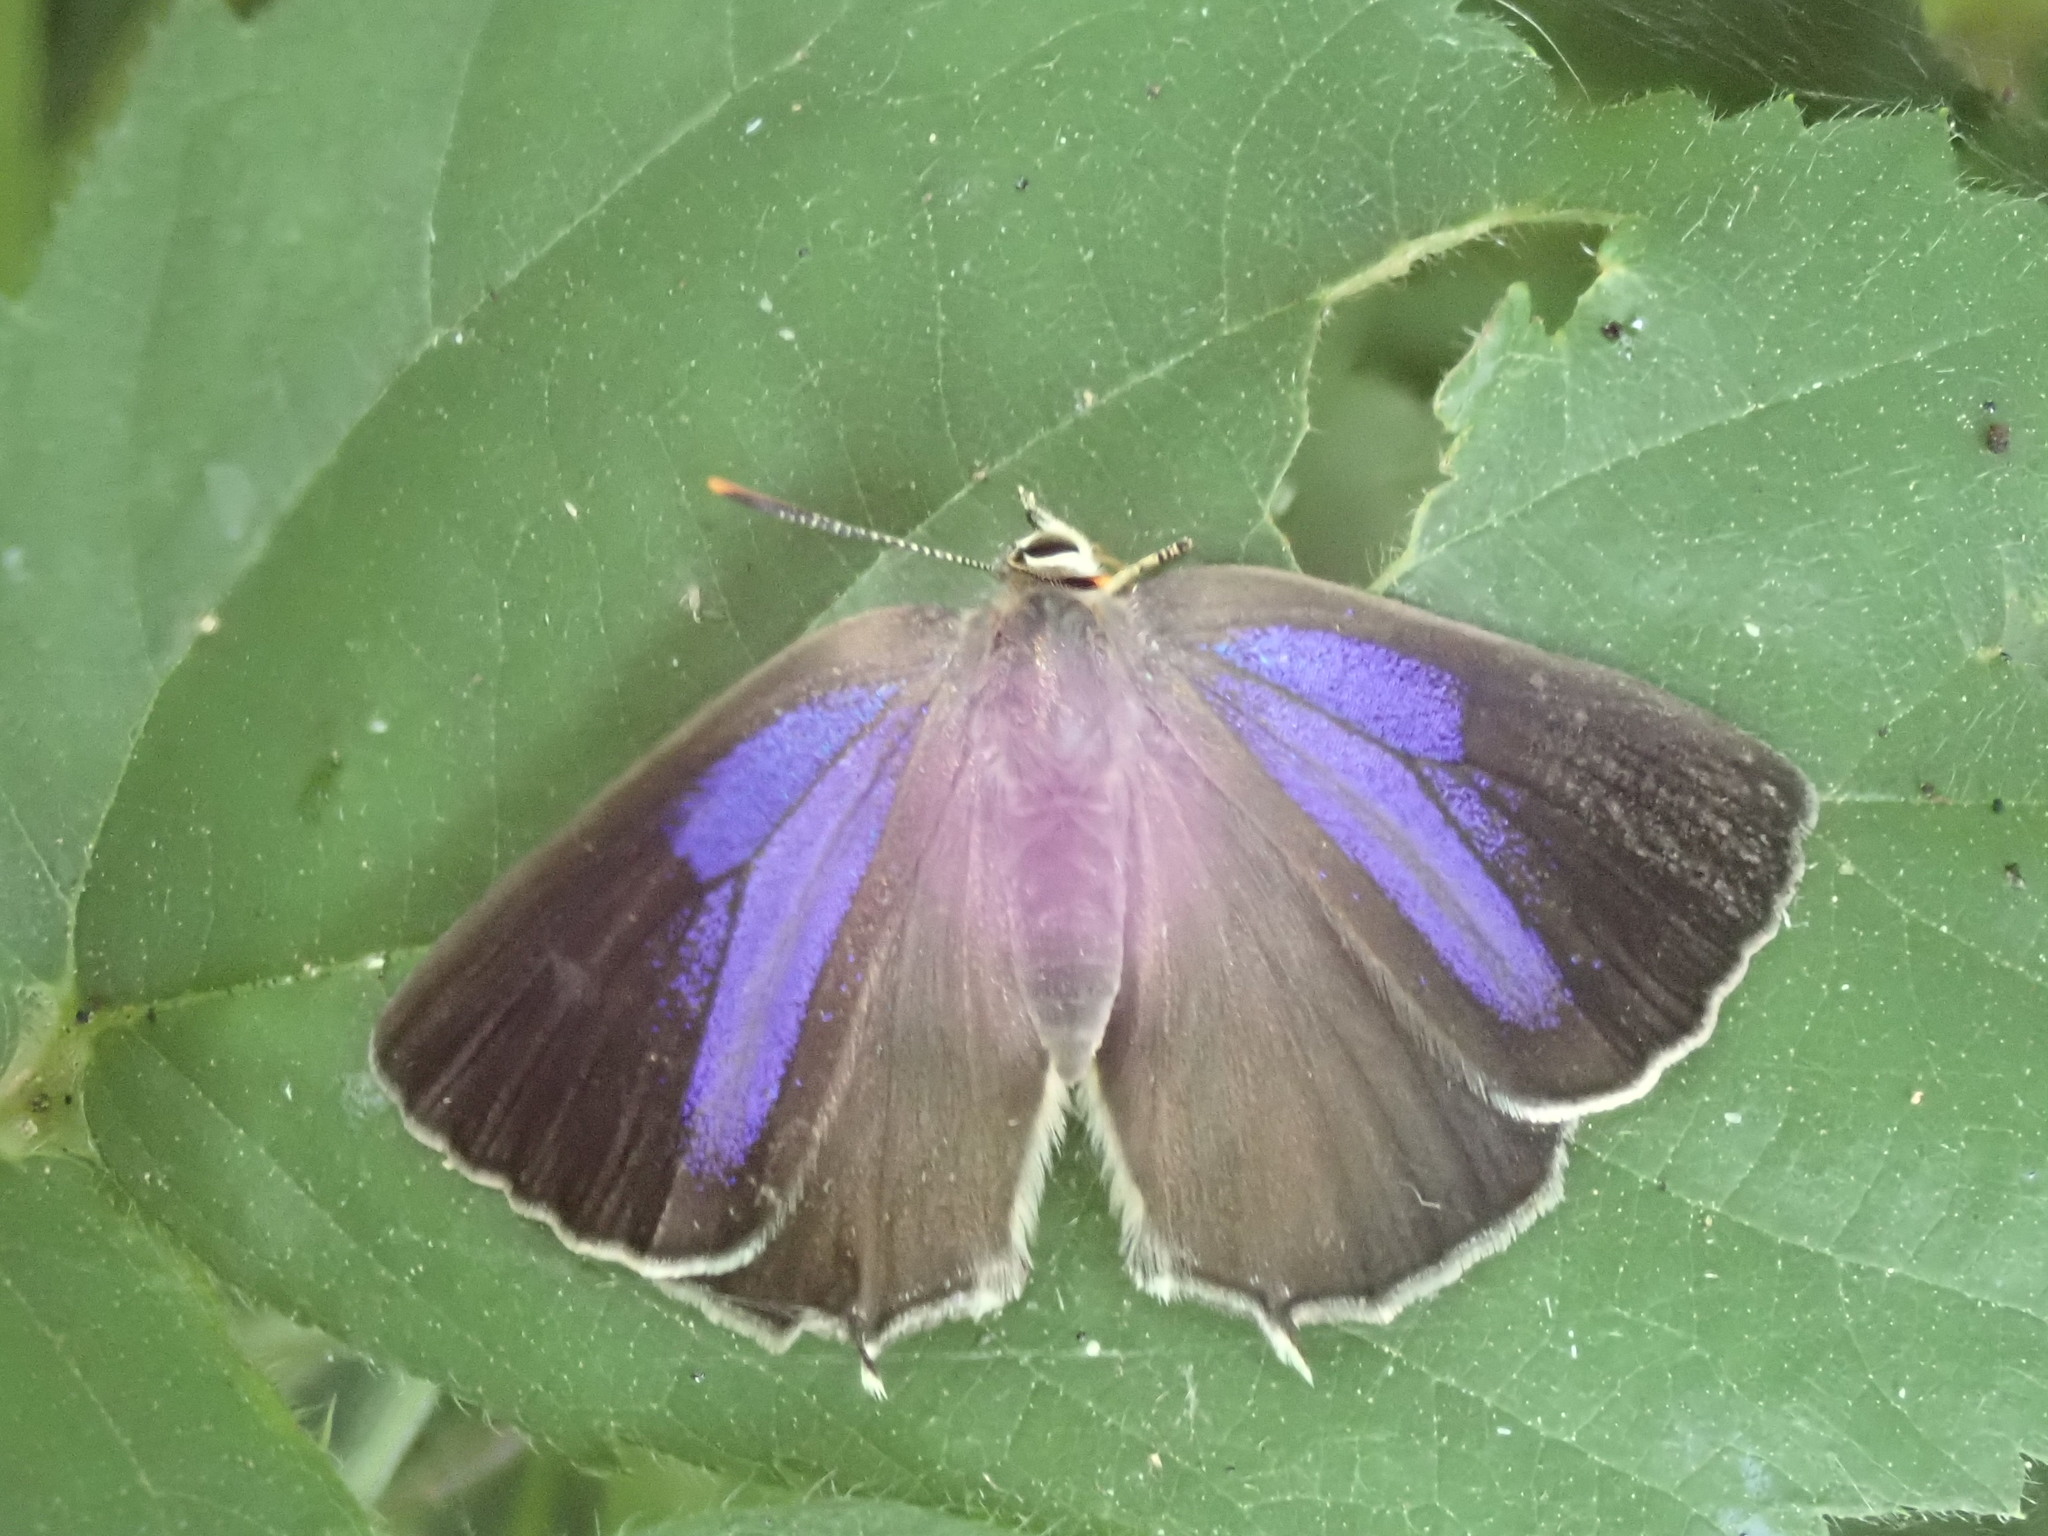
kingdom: Animalia
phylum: Arthropoda
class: Insecta
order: Lepidoptera
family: Lycaenidae
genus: Quercusia
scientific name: Quercusia quercus
